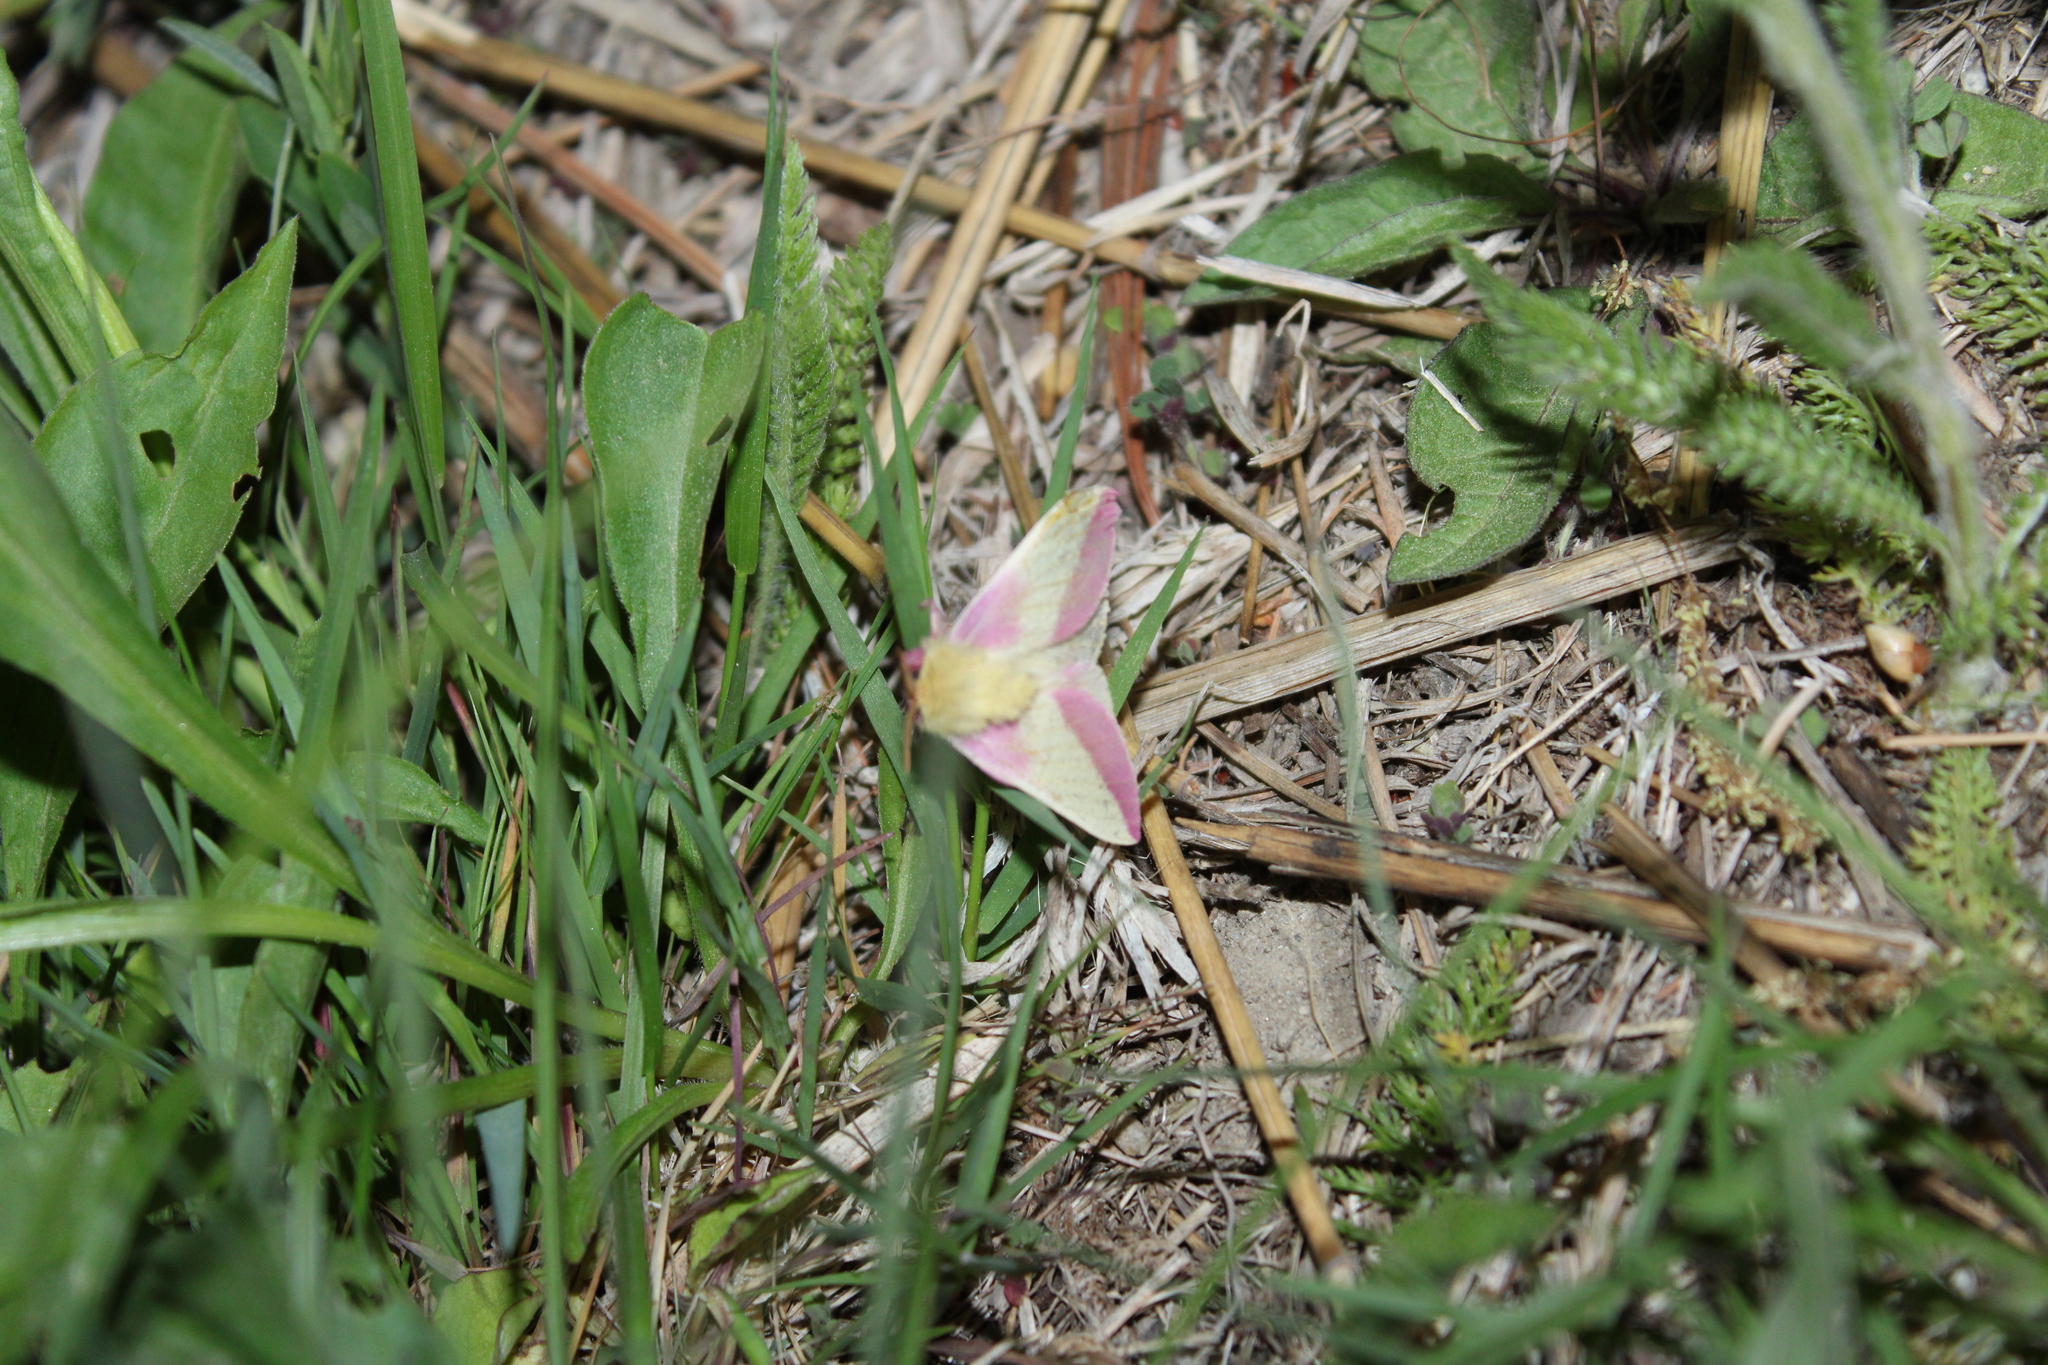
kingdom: Animalia
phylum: Arthropoda
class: Insecta
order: Lepidoptera
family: Saturniidae
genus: Dryocampa
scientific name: Dryocampa rubicunda
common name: Rosy maple moth
